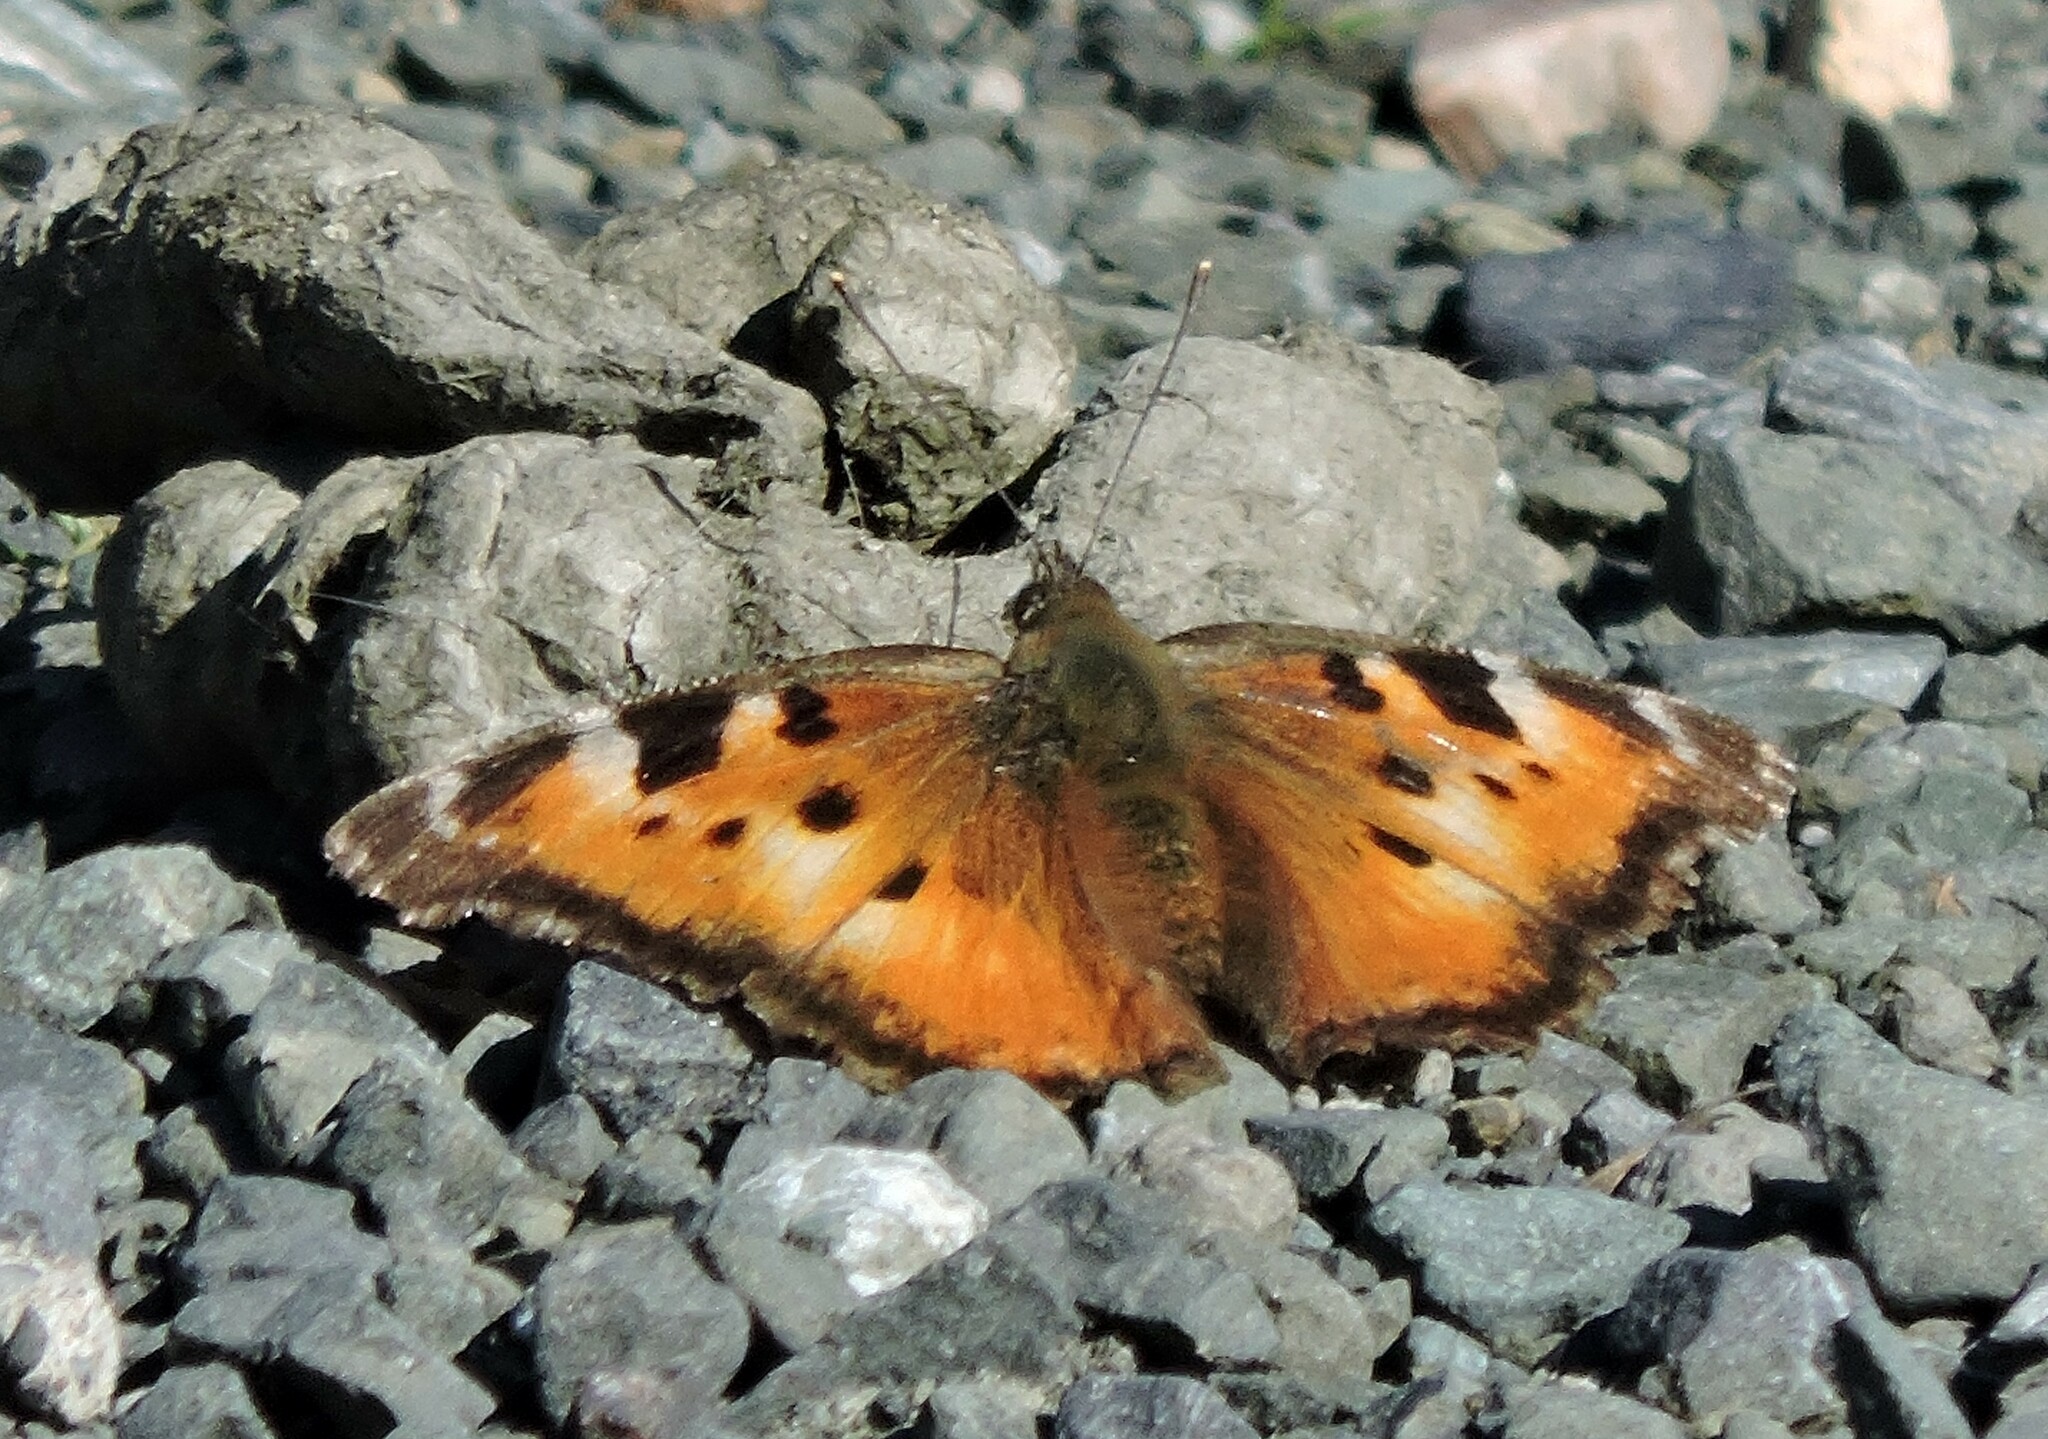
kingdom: Animalia
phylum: Arthropoda
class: Insecta
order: Lepidoptera
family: Nymphalidae
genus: Nymphalis
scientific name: Nymphalis californica
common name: California tortoiseshell
